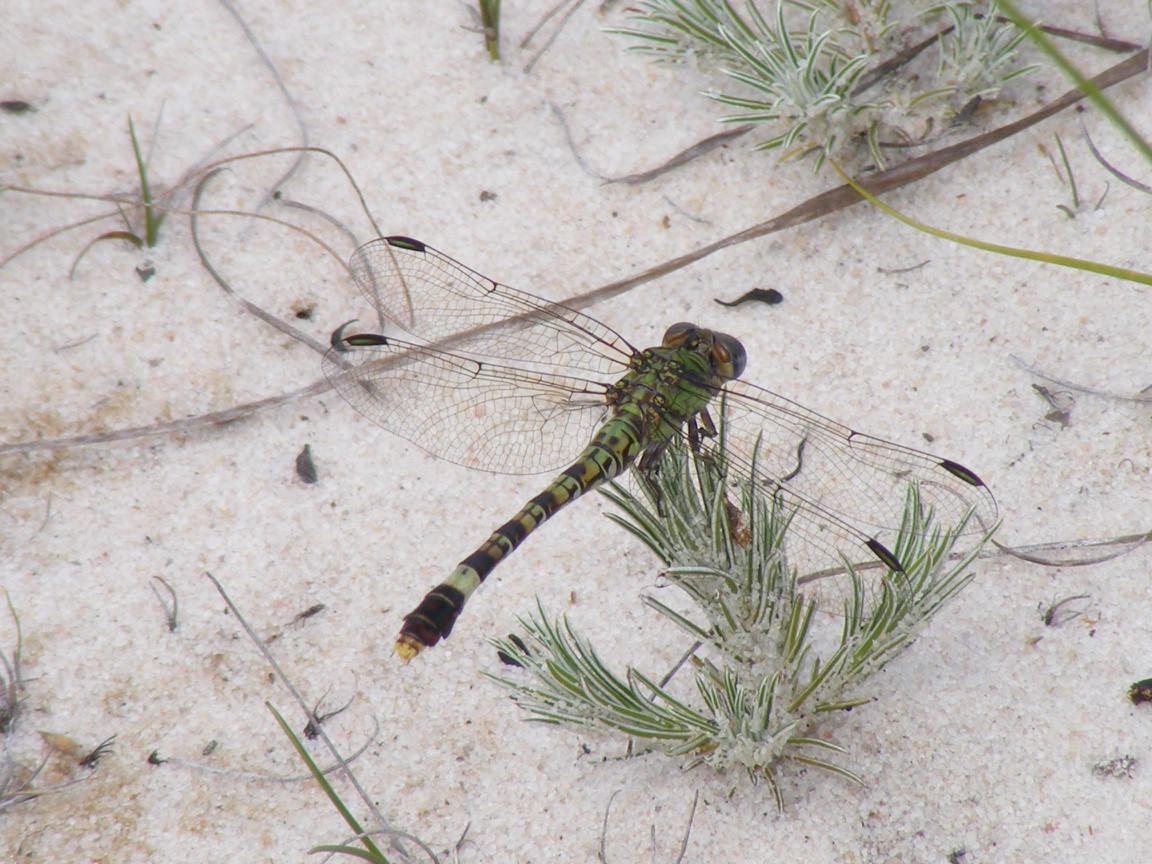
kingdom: Animalia
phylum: Arthropoda
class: Insecta
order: Odonata
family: Gomphidae
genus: Paragomphus
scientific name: Paragomphus genei
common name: Common hooktail
